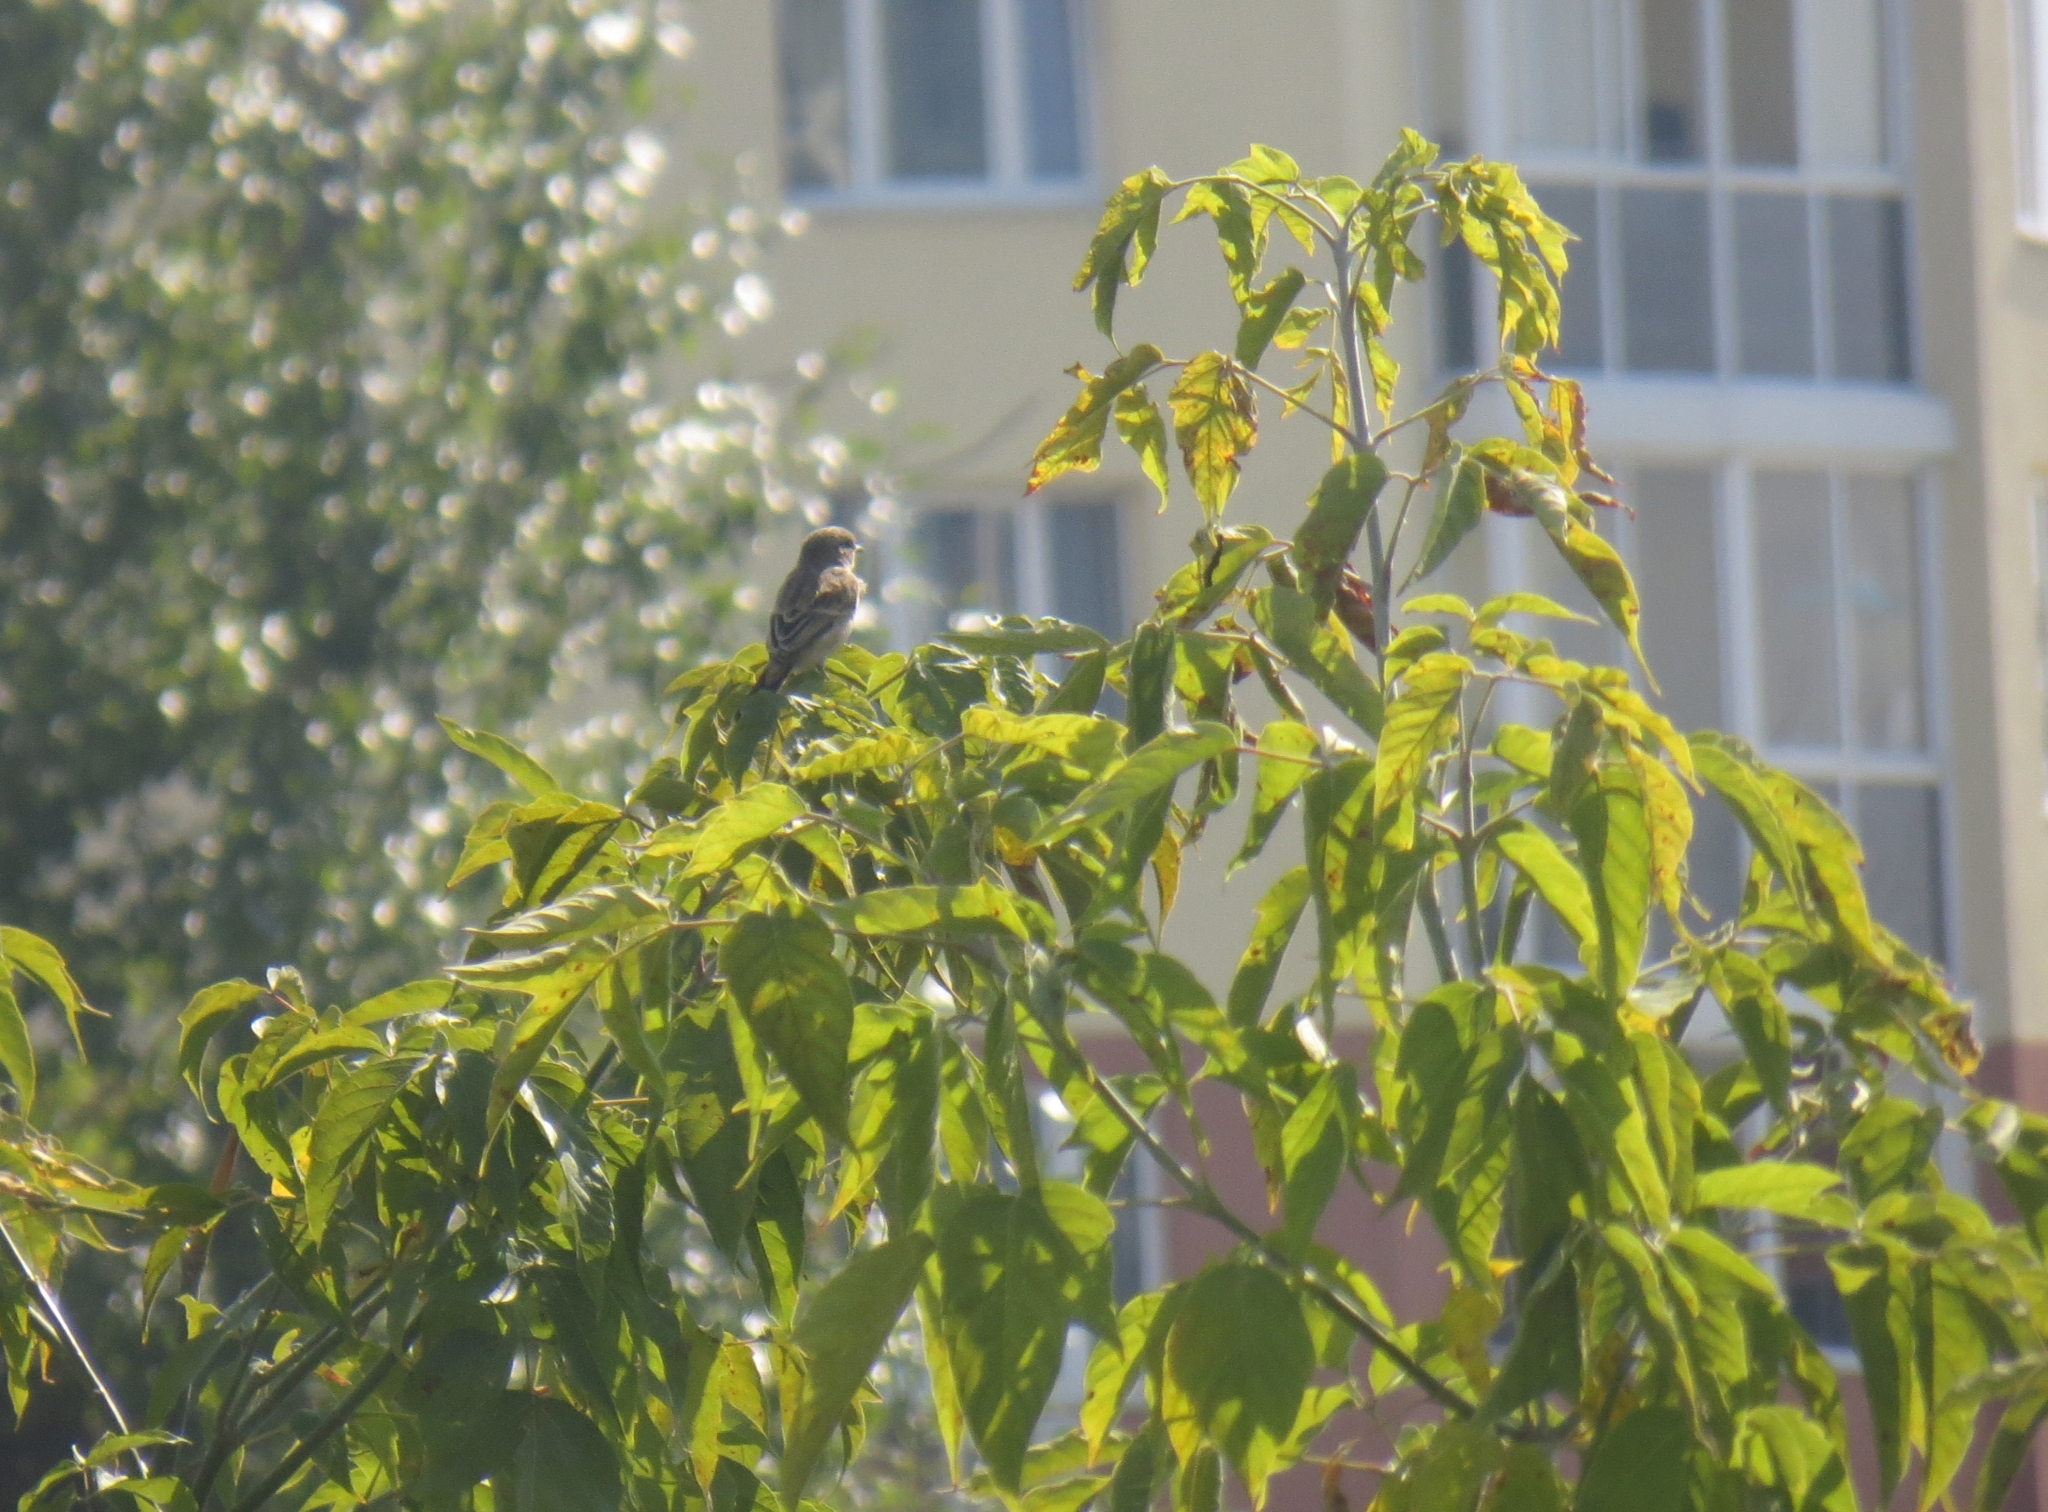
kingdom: Animalia
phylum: Chordata
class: Aves
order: Passeriformes
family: Muscicapidae
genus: Saxicola
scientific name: Saxicola maurus
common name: Siberian stonechat
